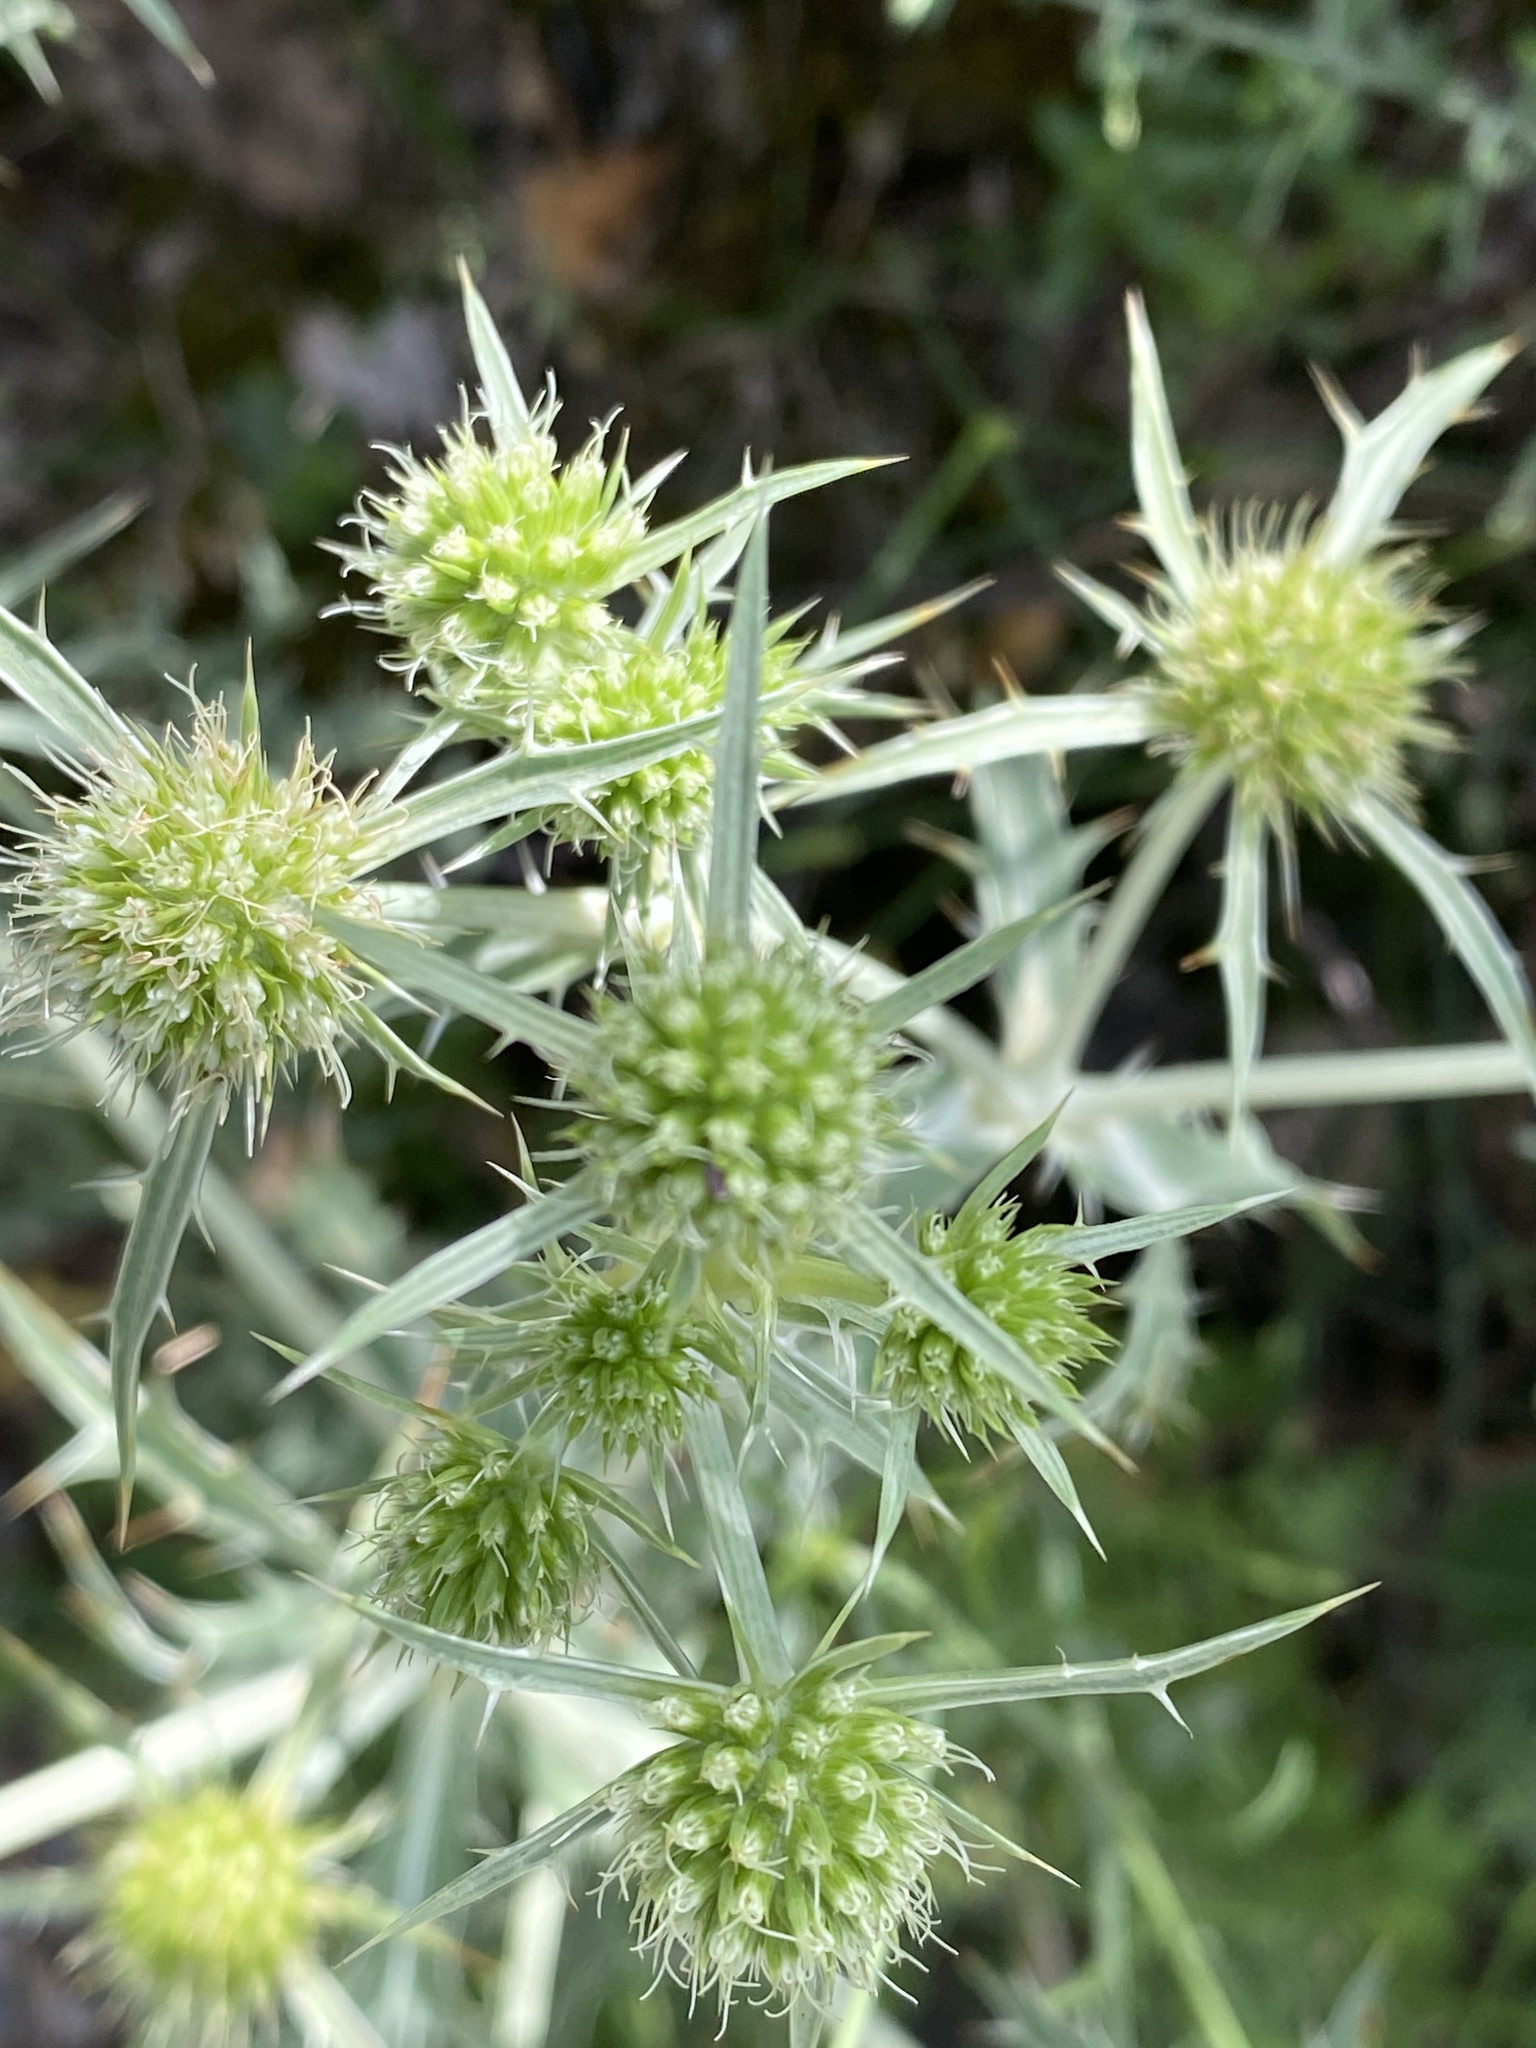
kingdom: Plantae
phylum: Tracheophyta
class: Magnoliopsida
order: Apiales
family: Apiaceae
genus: Eryngium
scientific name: Eryngium campestre
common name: Field eryngo
